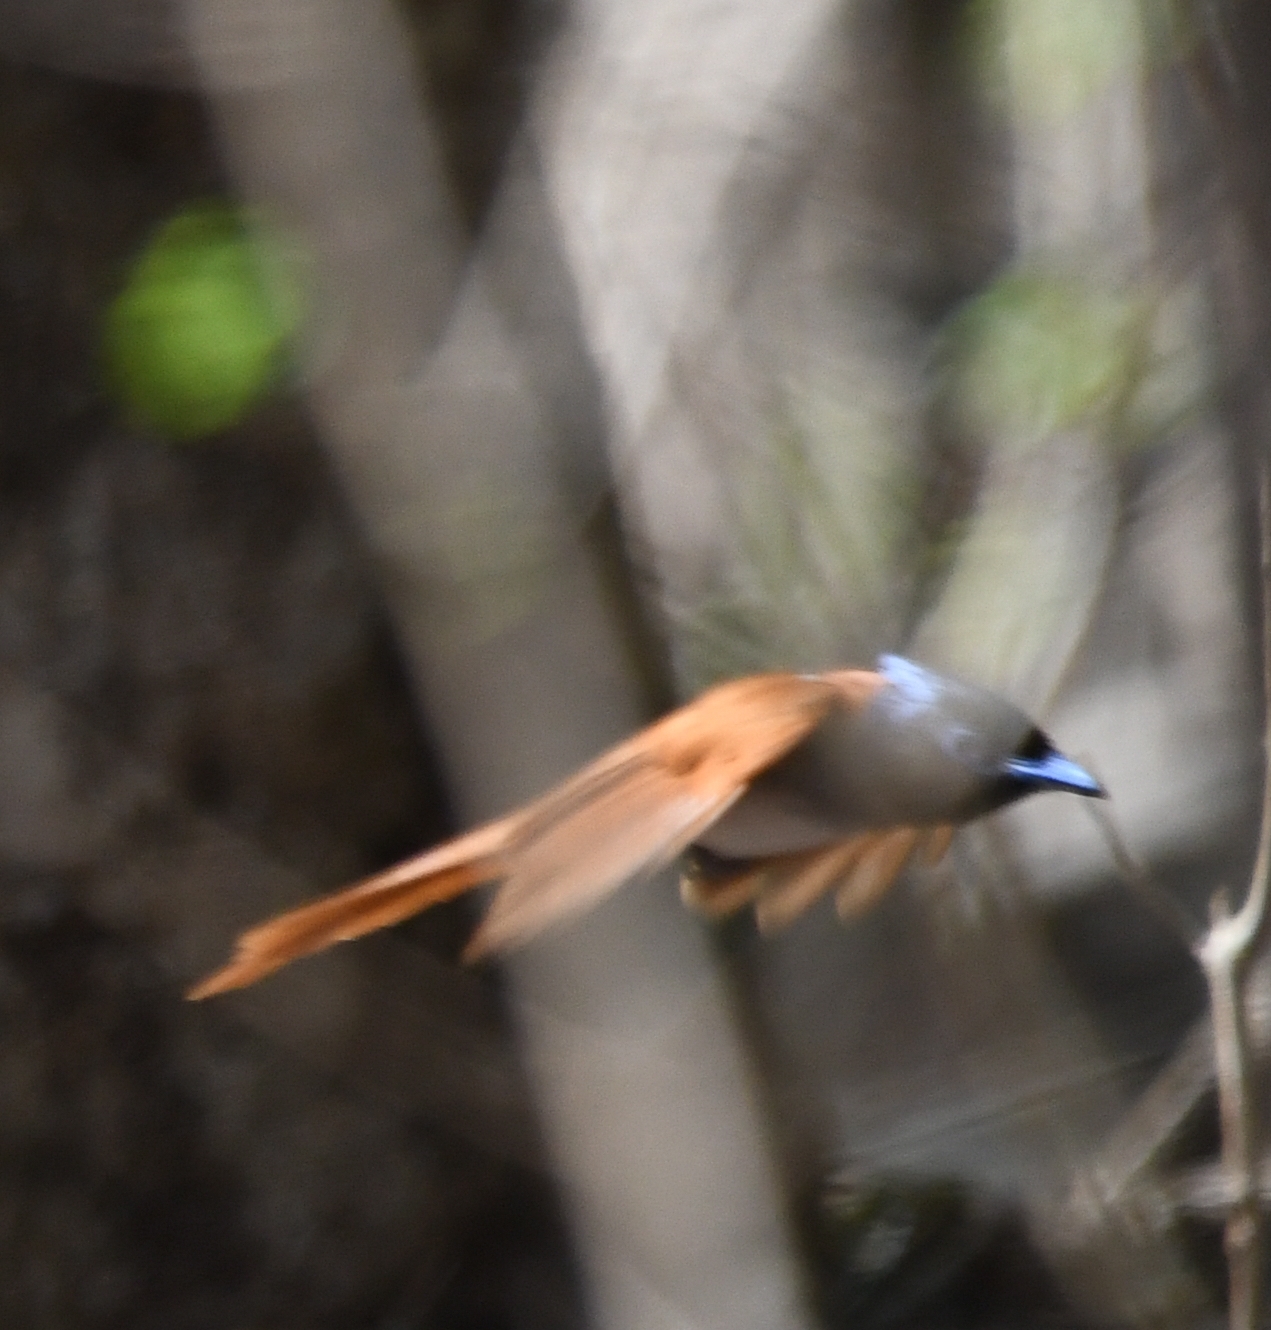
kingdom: Animalia
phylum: Chordata
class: Aves
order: Passeriformes
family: Monarchidae
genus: Terpsiphone
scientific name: Terpsiphone paradisi
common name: Indian paradise flycatcher
